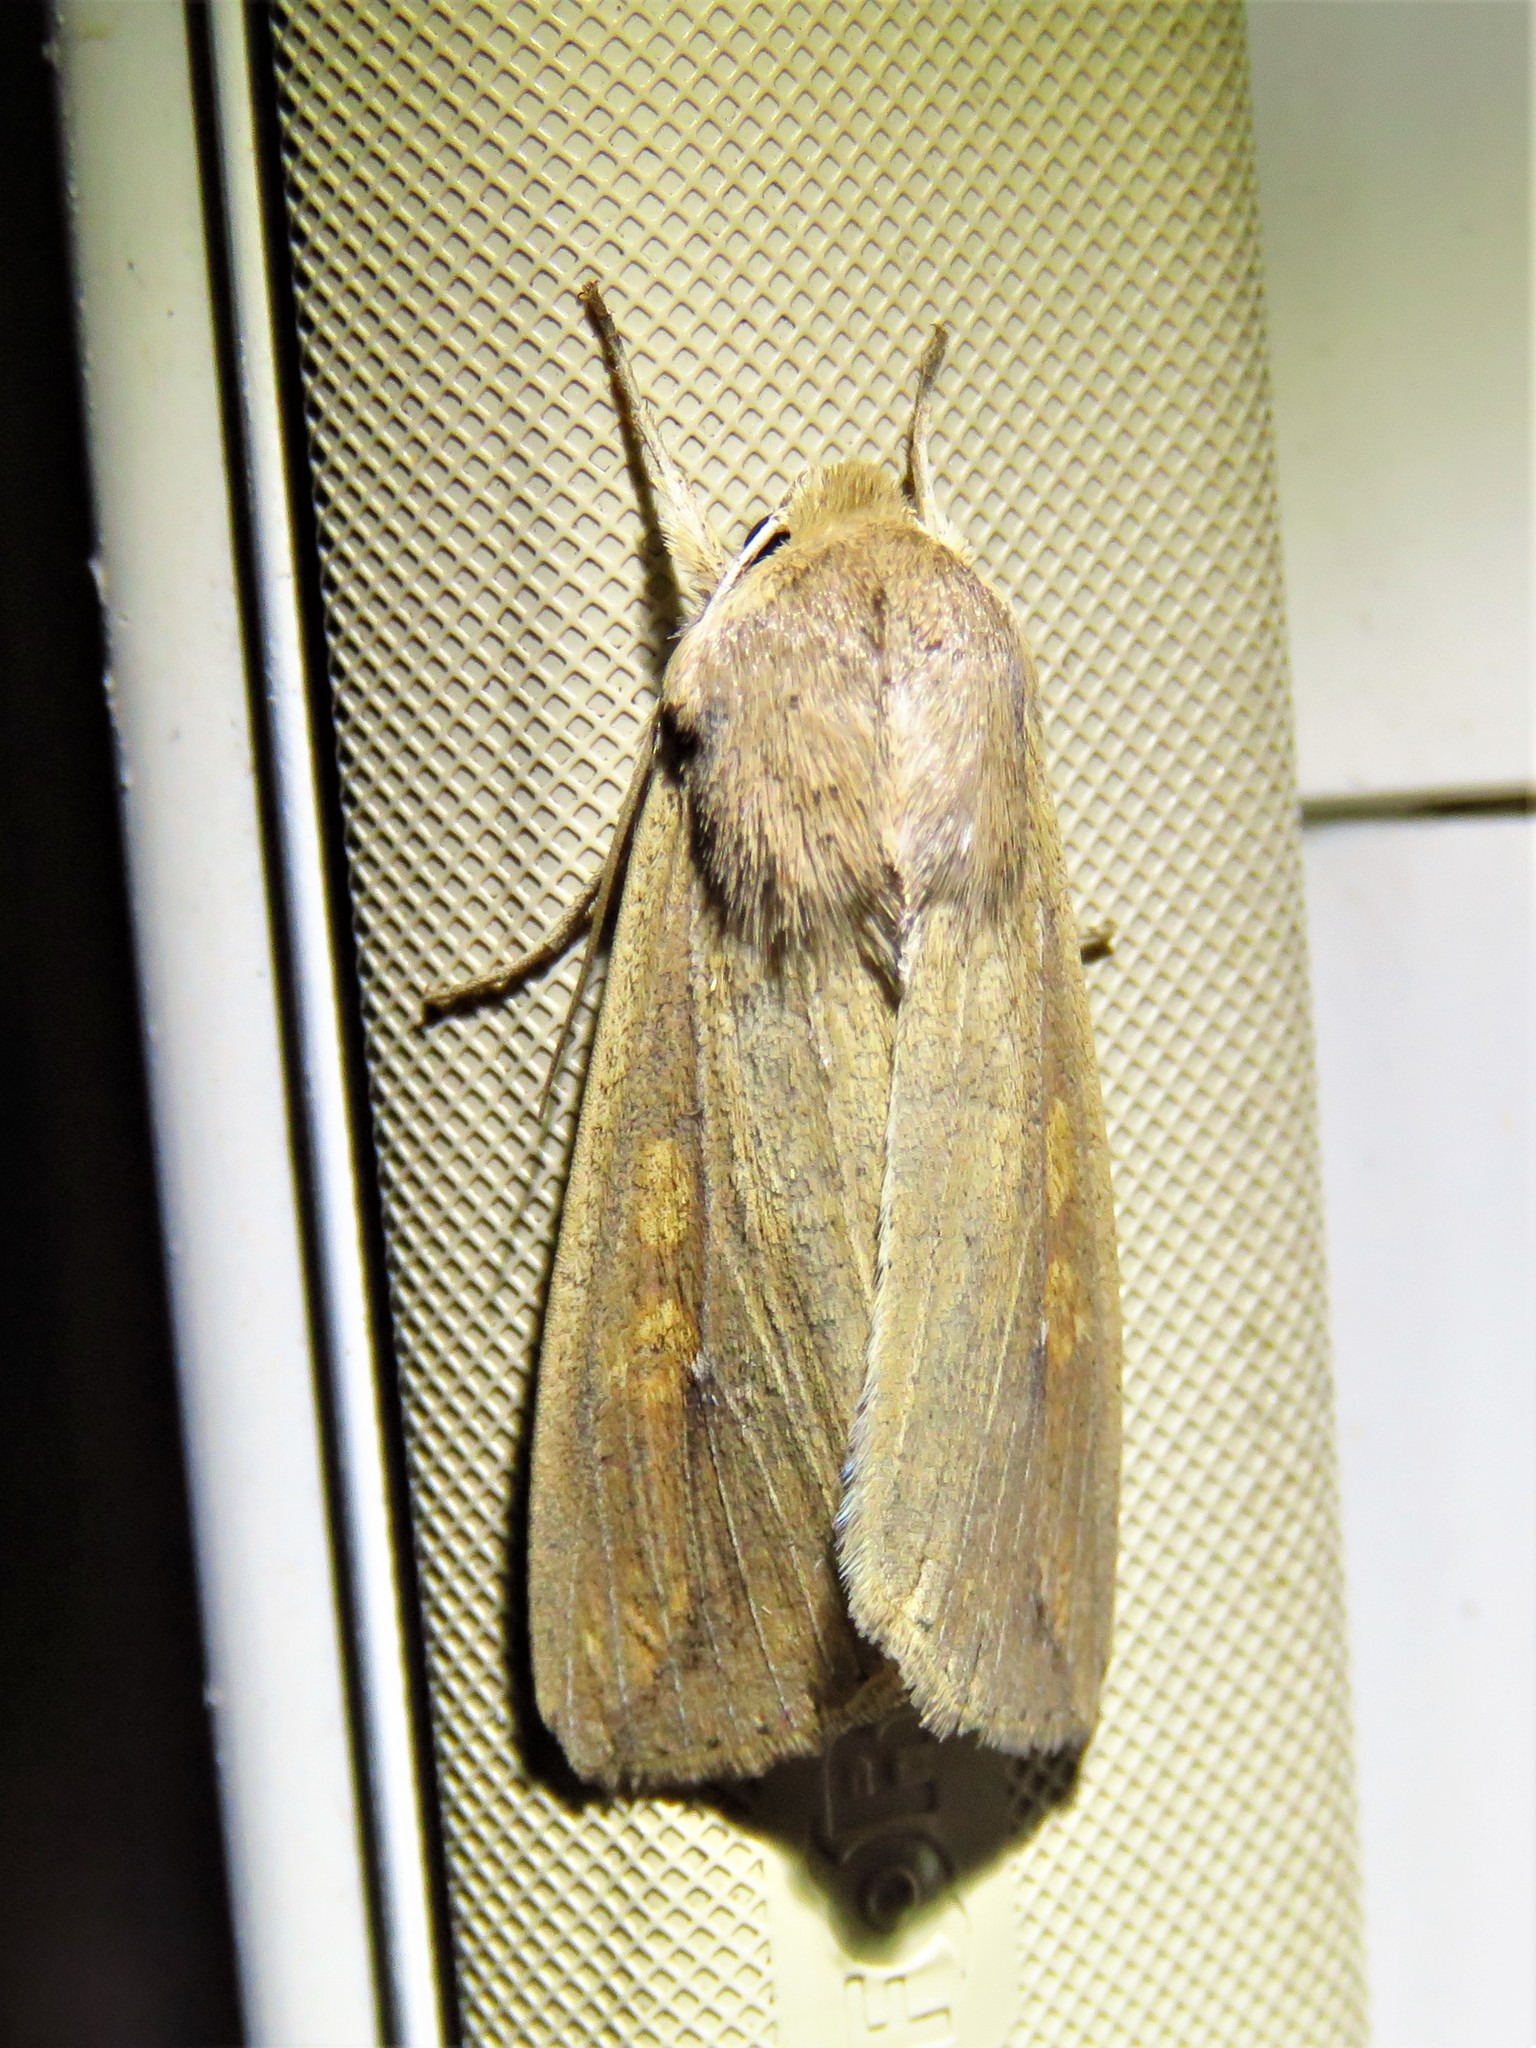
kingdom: Animalia
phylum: Arthropoda
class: Insecta
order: Lepidoptera
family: Noctuidae
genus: Mythimna
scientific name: Mythimna unipuncta
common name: White-speck
